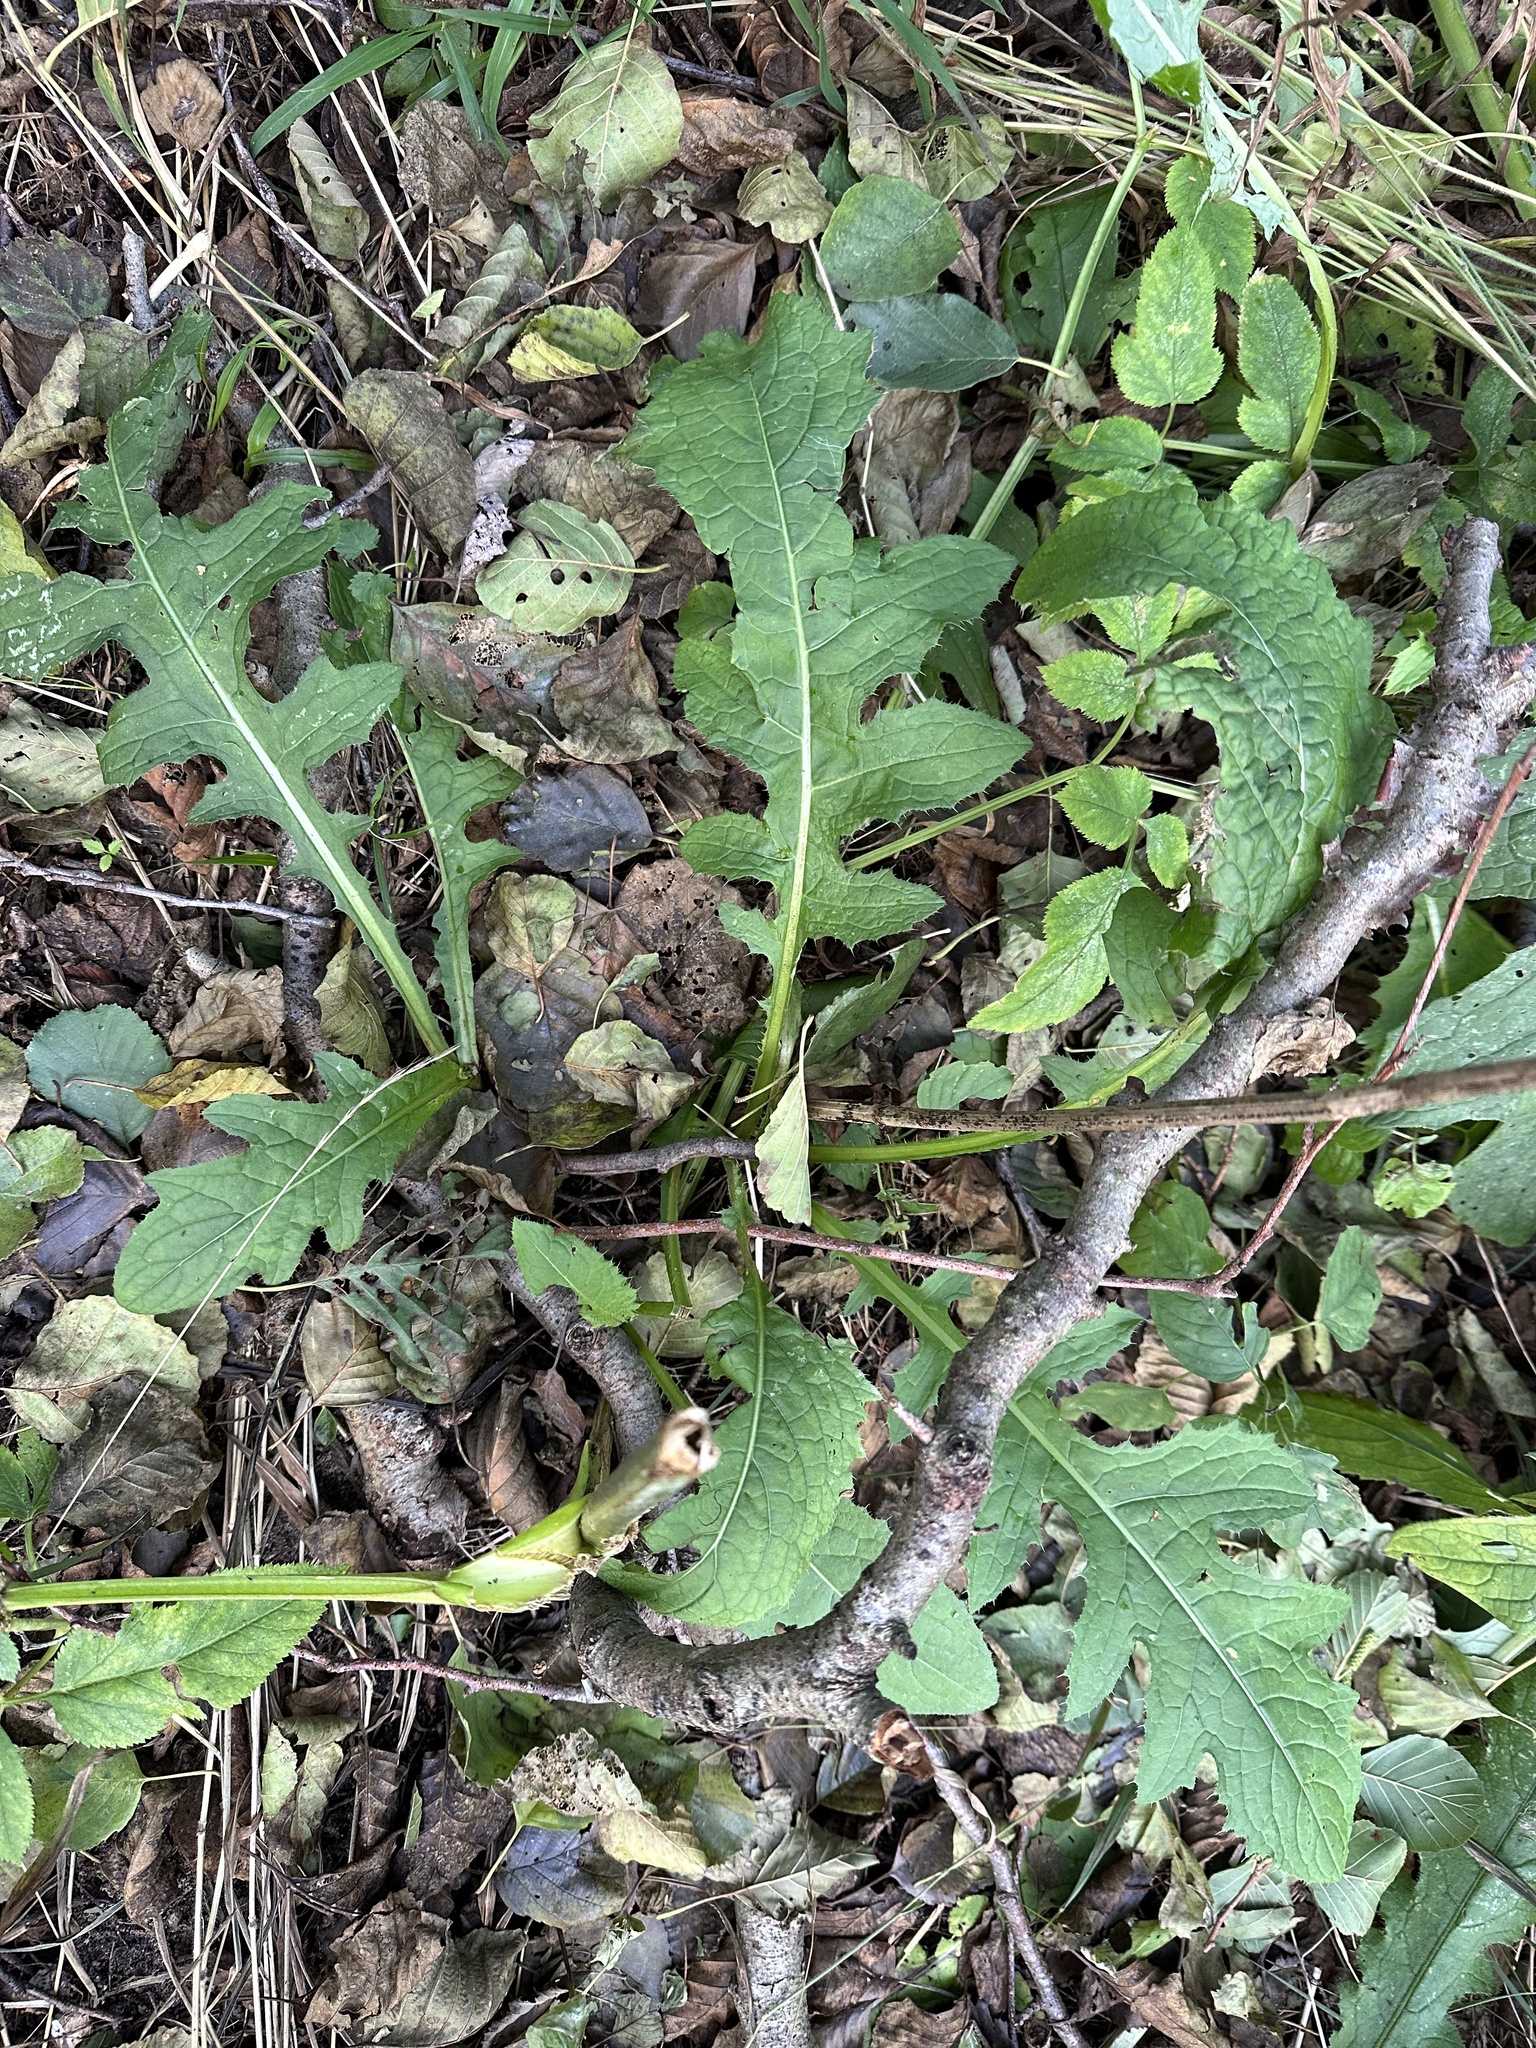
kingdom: Plantae
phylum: Tracheophyta
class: Magnoliopsida
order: Asterales
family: Asteraceae
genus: Cirsium
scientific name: Cirsium oleraceum
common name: Cabbage thistle
